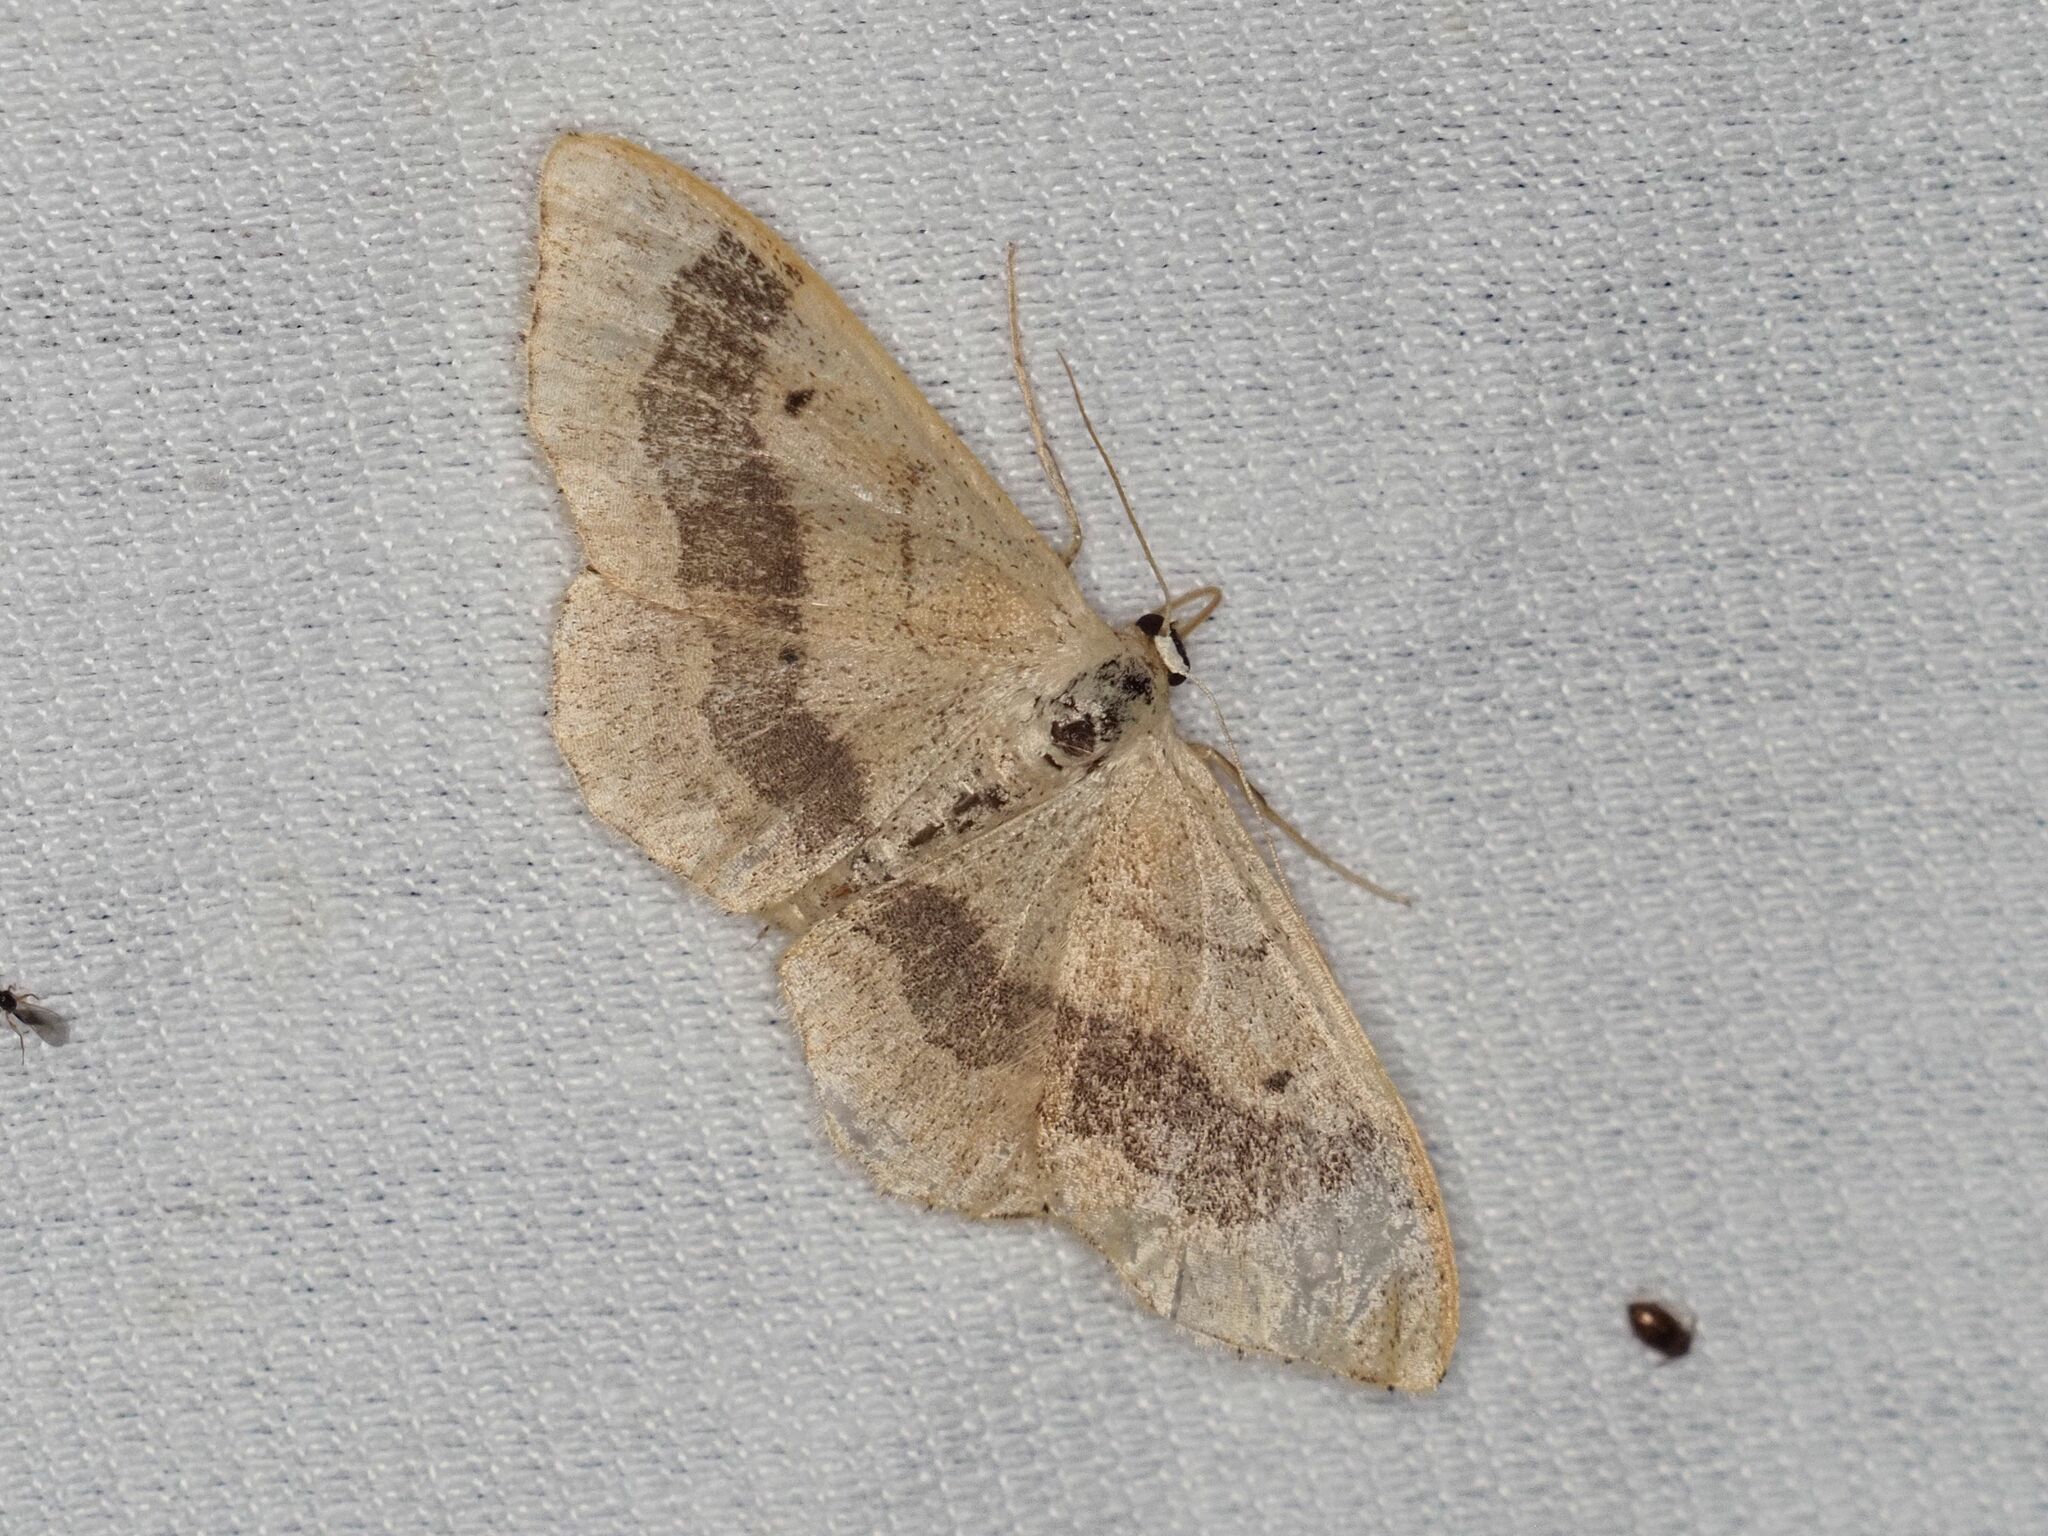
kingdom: Animalia
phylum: Arthropoda
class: Insecta
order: Lepidoptera
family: Geometridae
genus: Idaea
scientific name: Idaea aversata
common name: Riband wave
